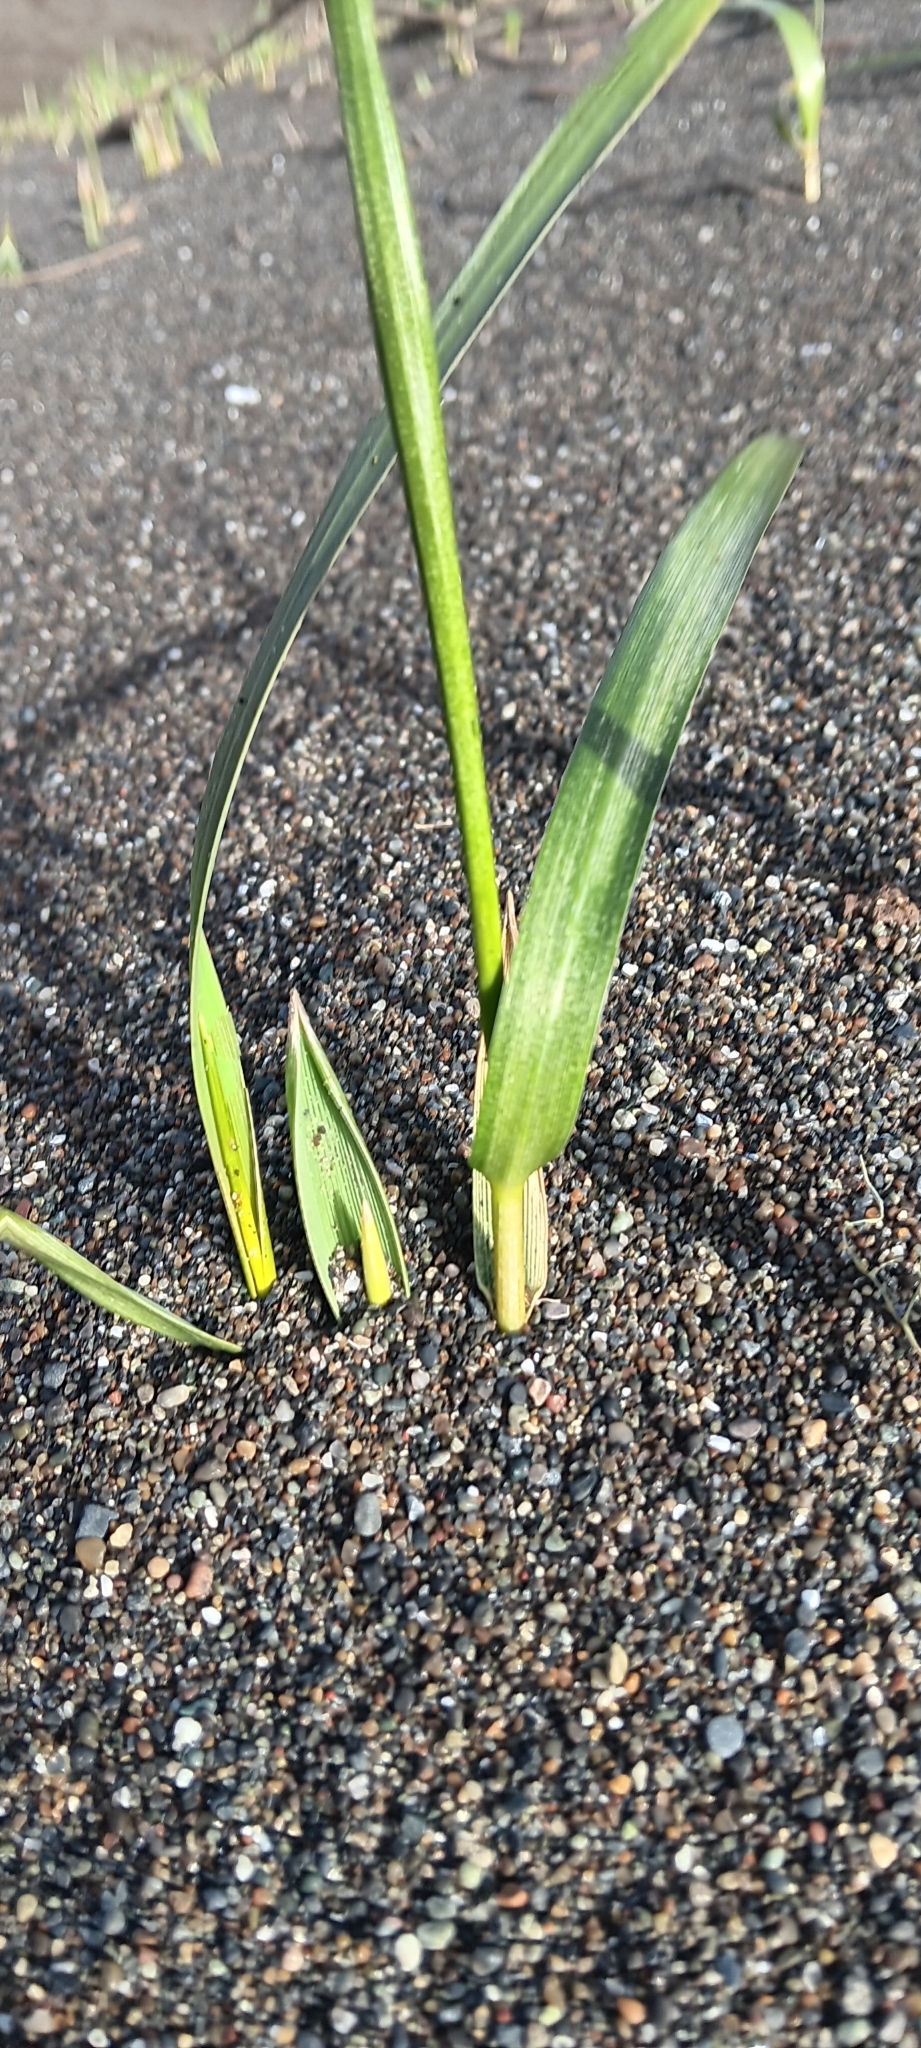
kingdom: Plantae
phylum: Tracheophyta
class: Liliopsida
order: Poales
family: Poaceae
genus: Leymus
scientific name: Leymus mollis
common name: American dune grass
